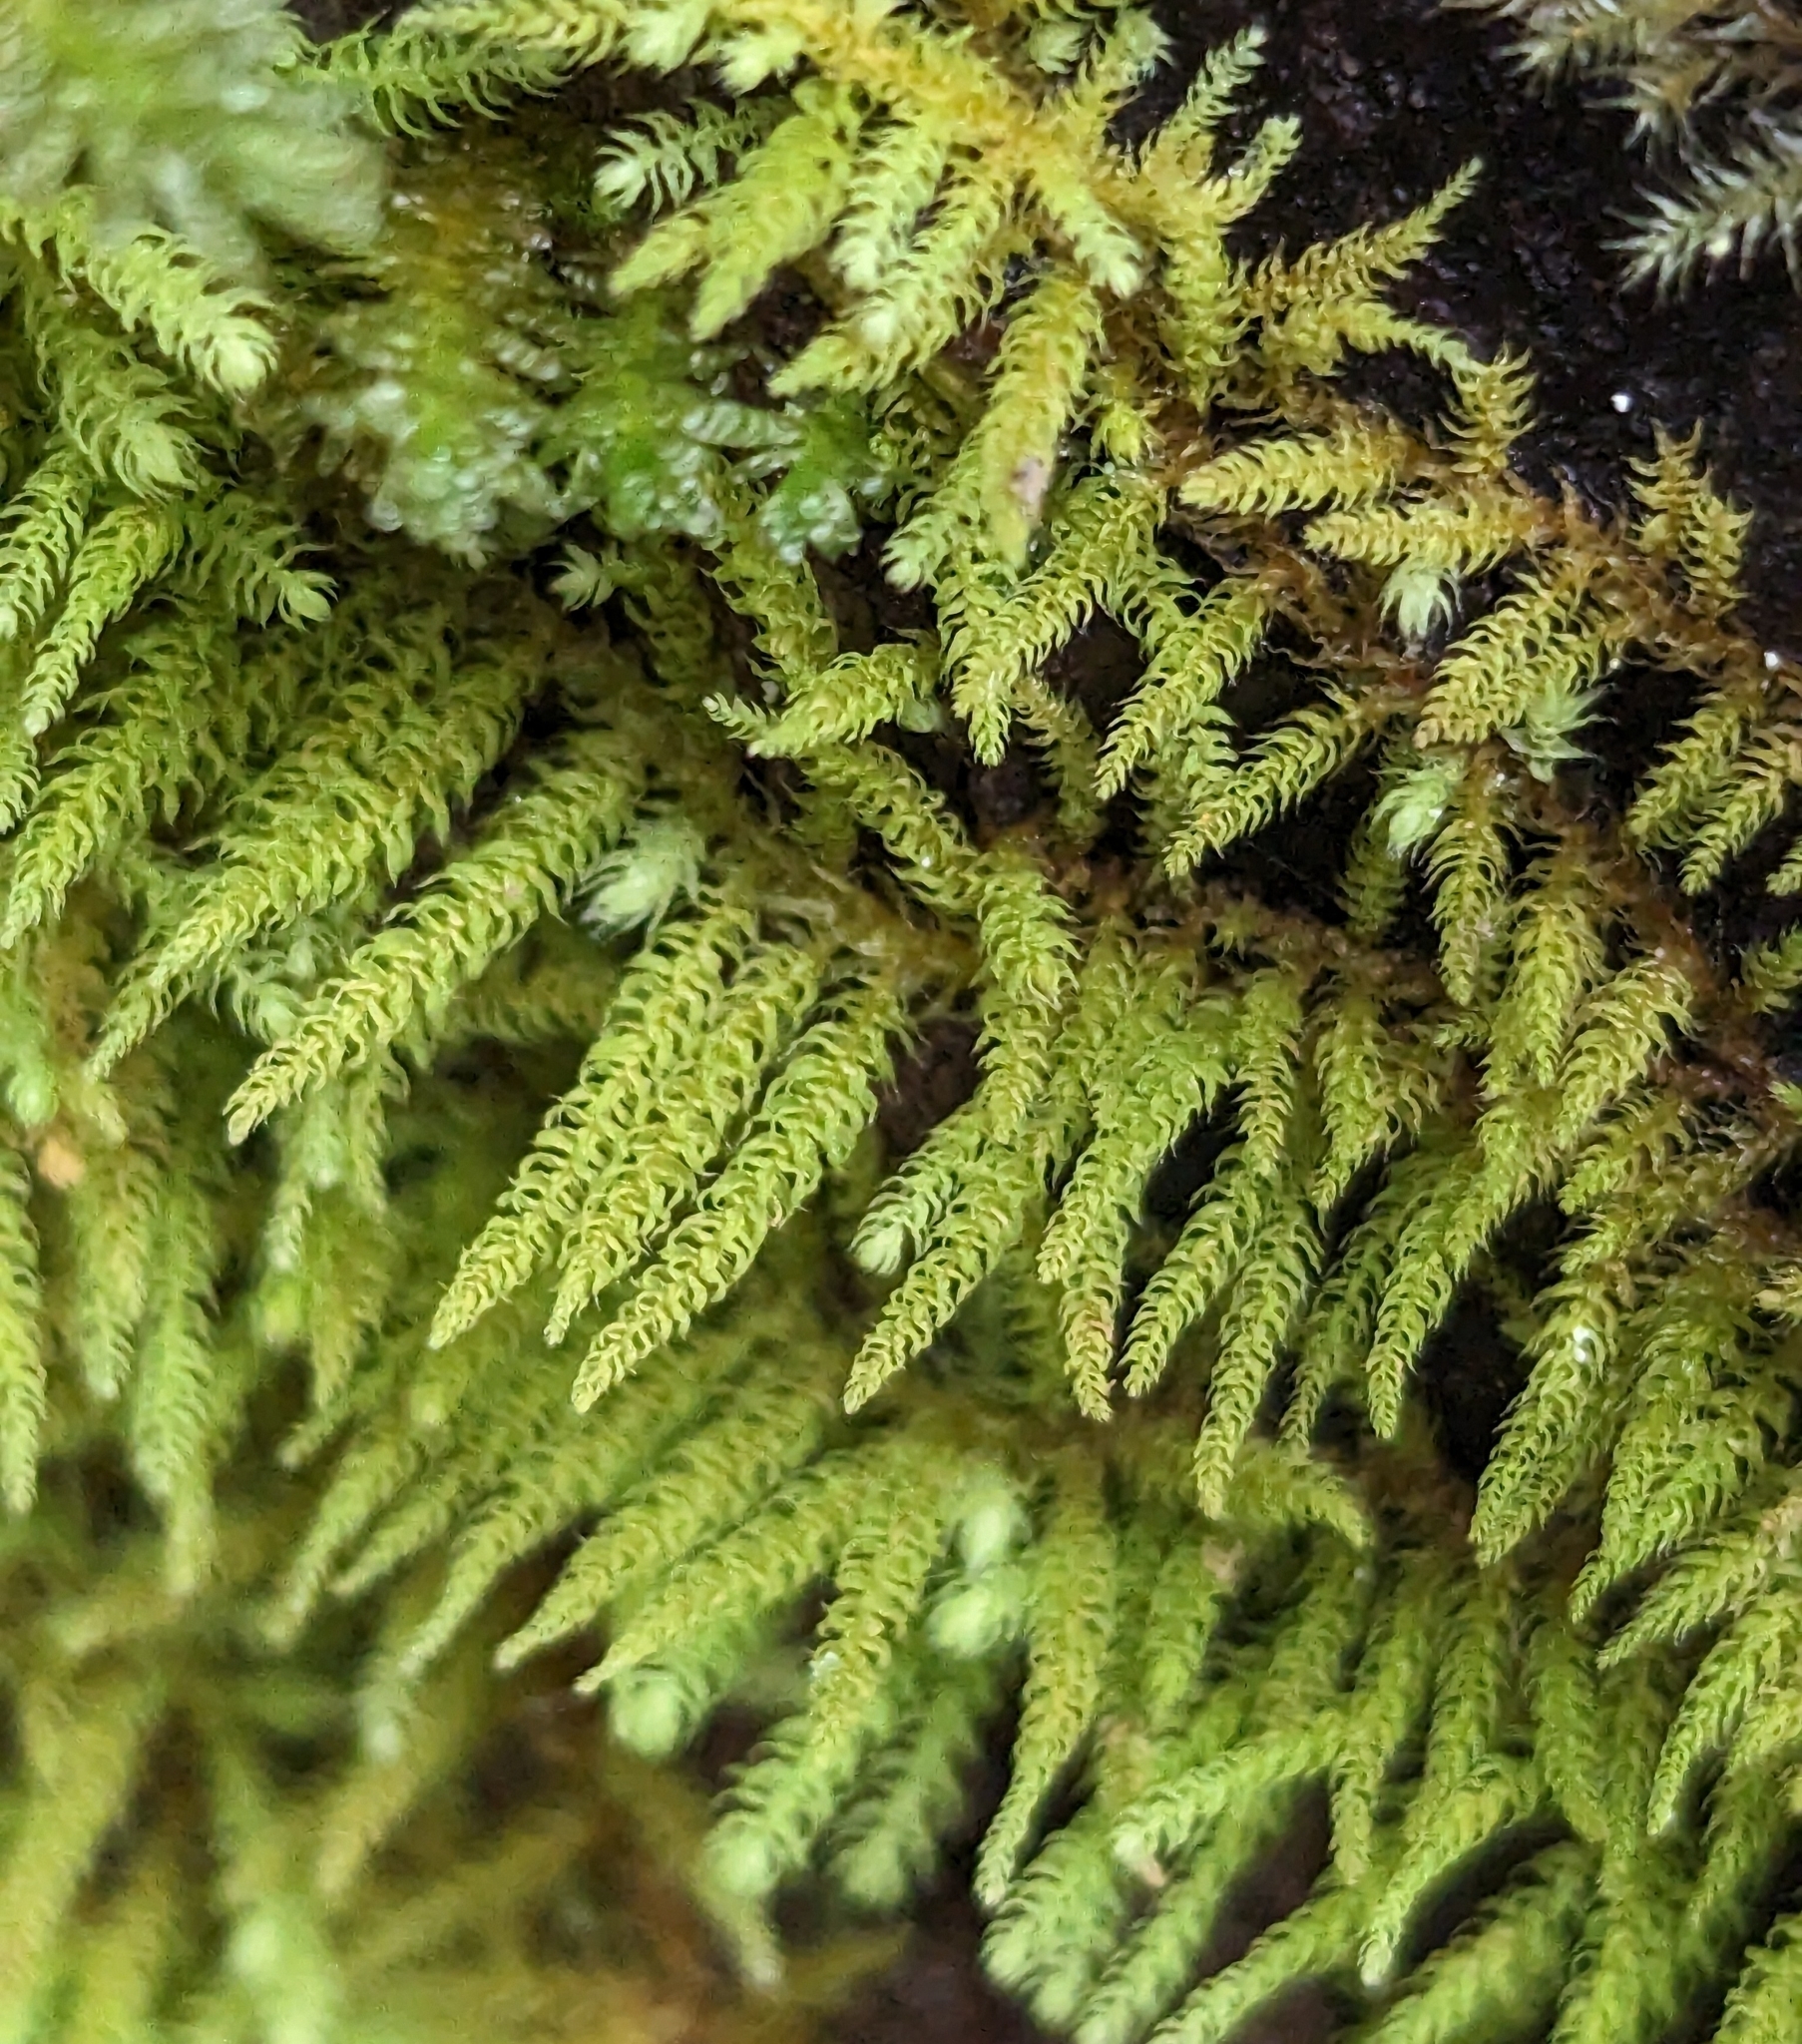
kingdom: Plantae
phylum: Bryophyta
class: Bryopsida
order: Hypnales
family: Brachytheciaceae
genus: Claopodium
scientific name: Claopodium crispifolium
